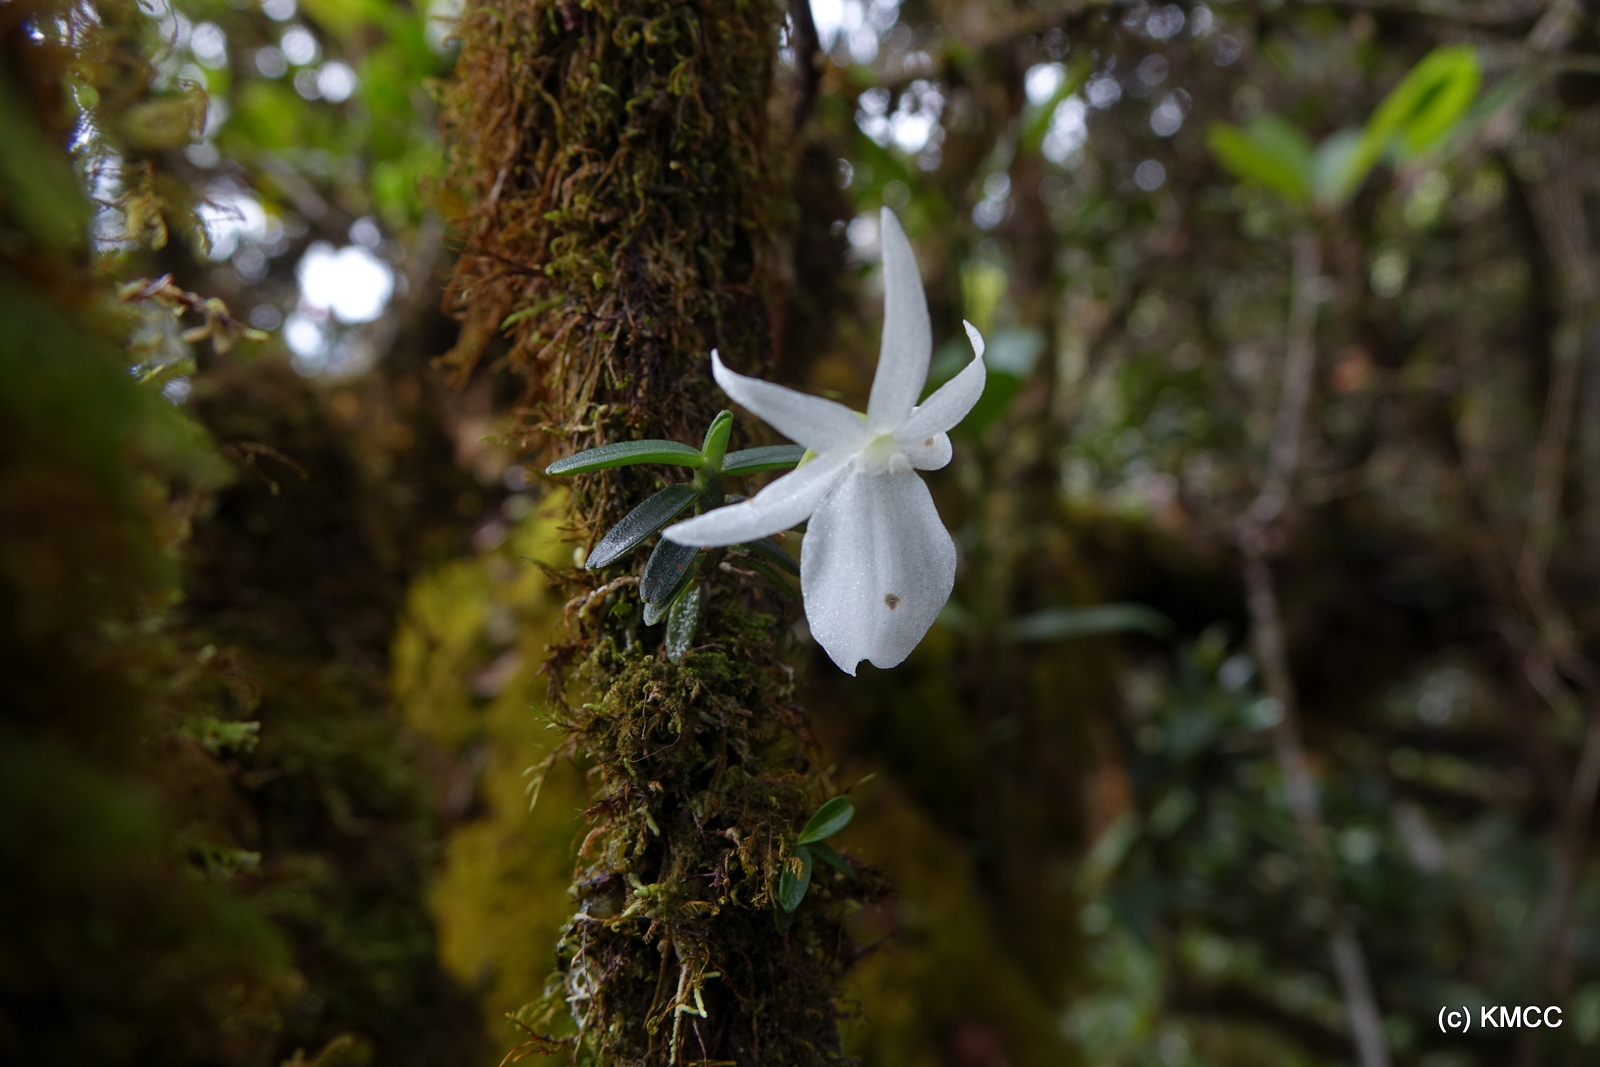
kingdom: Plantae
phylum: Tracheophyta
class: Liliopsida
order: Asparagales
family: Orchidaceae
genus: Angraecum
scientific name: Angraecum drouhardii
